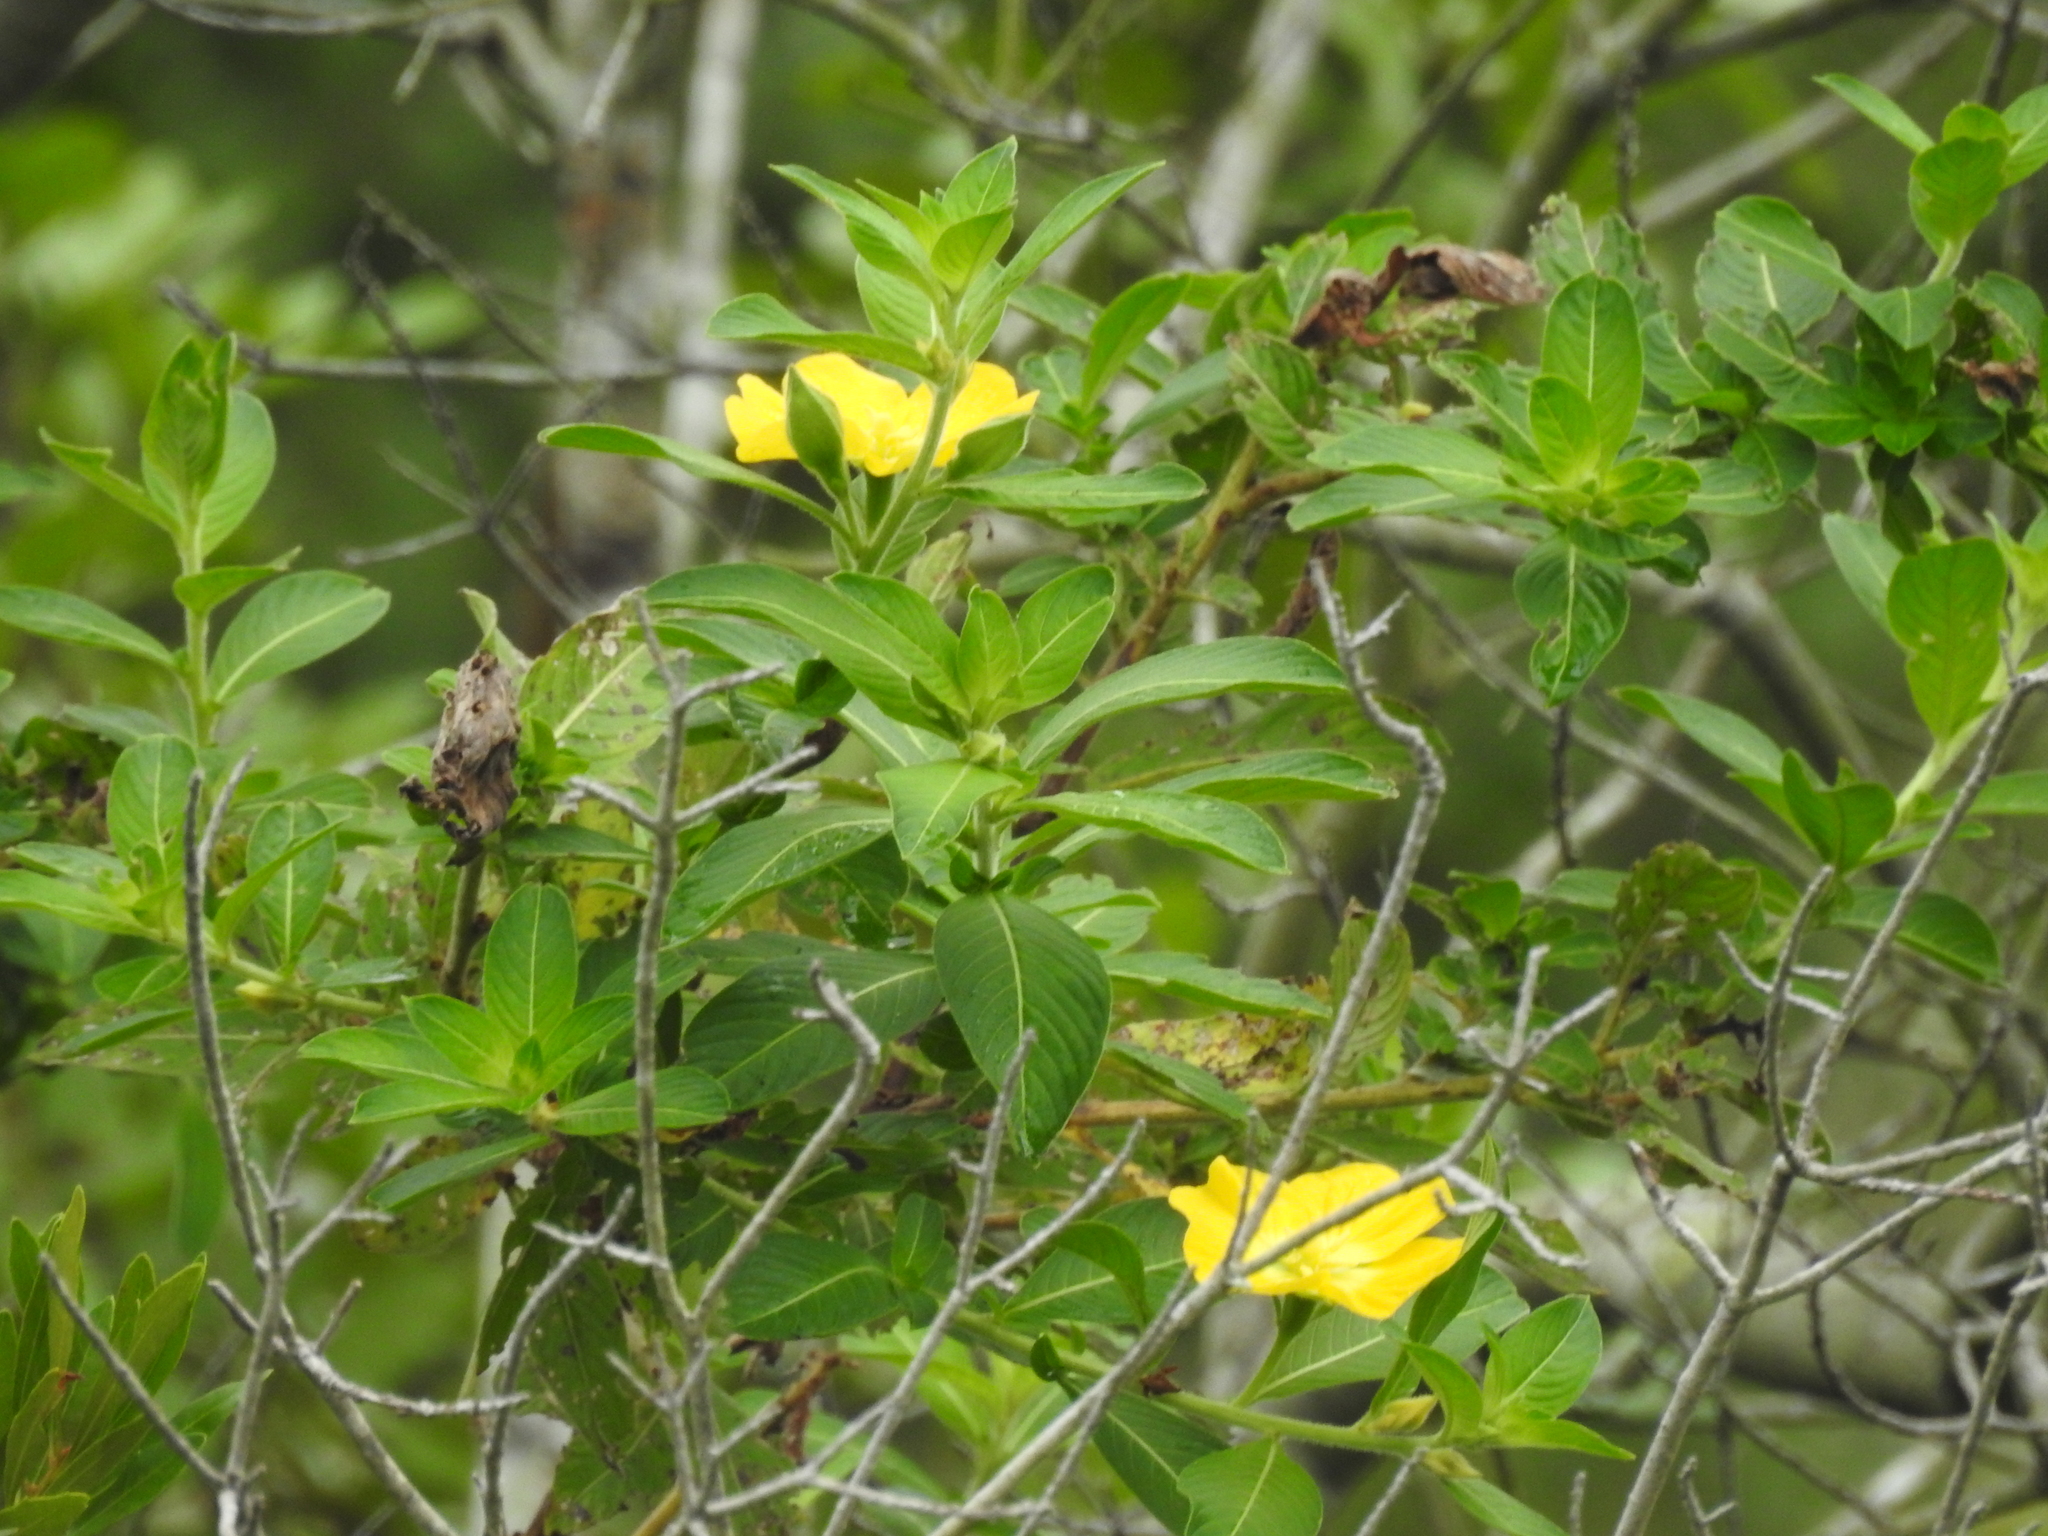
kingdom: Plantae
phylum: Tracheophyta
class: Magnoliopsida
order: Myrtales
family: Onagraceae
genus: Ludwigia
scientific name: Ludwigia peruviana
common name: Peruvian primrose-willow
